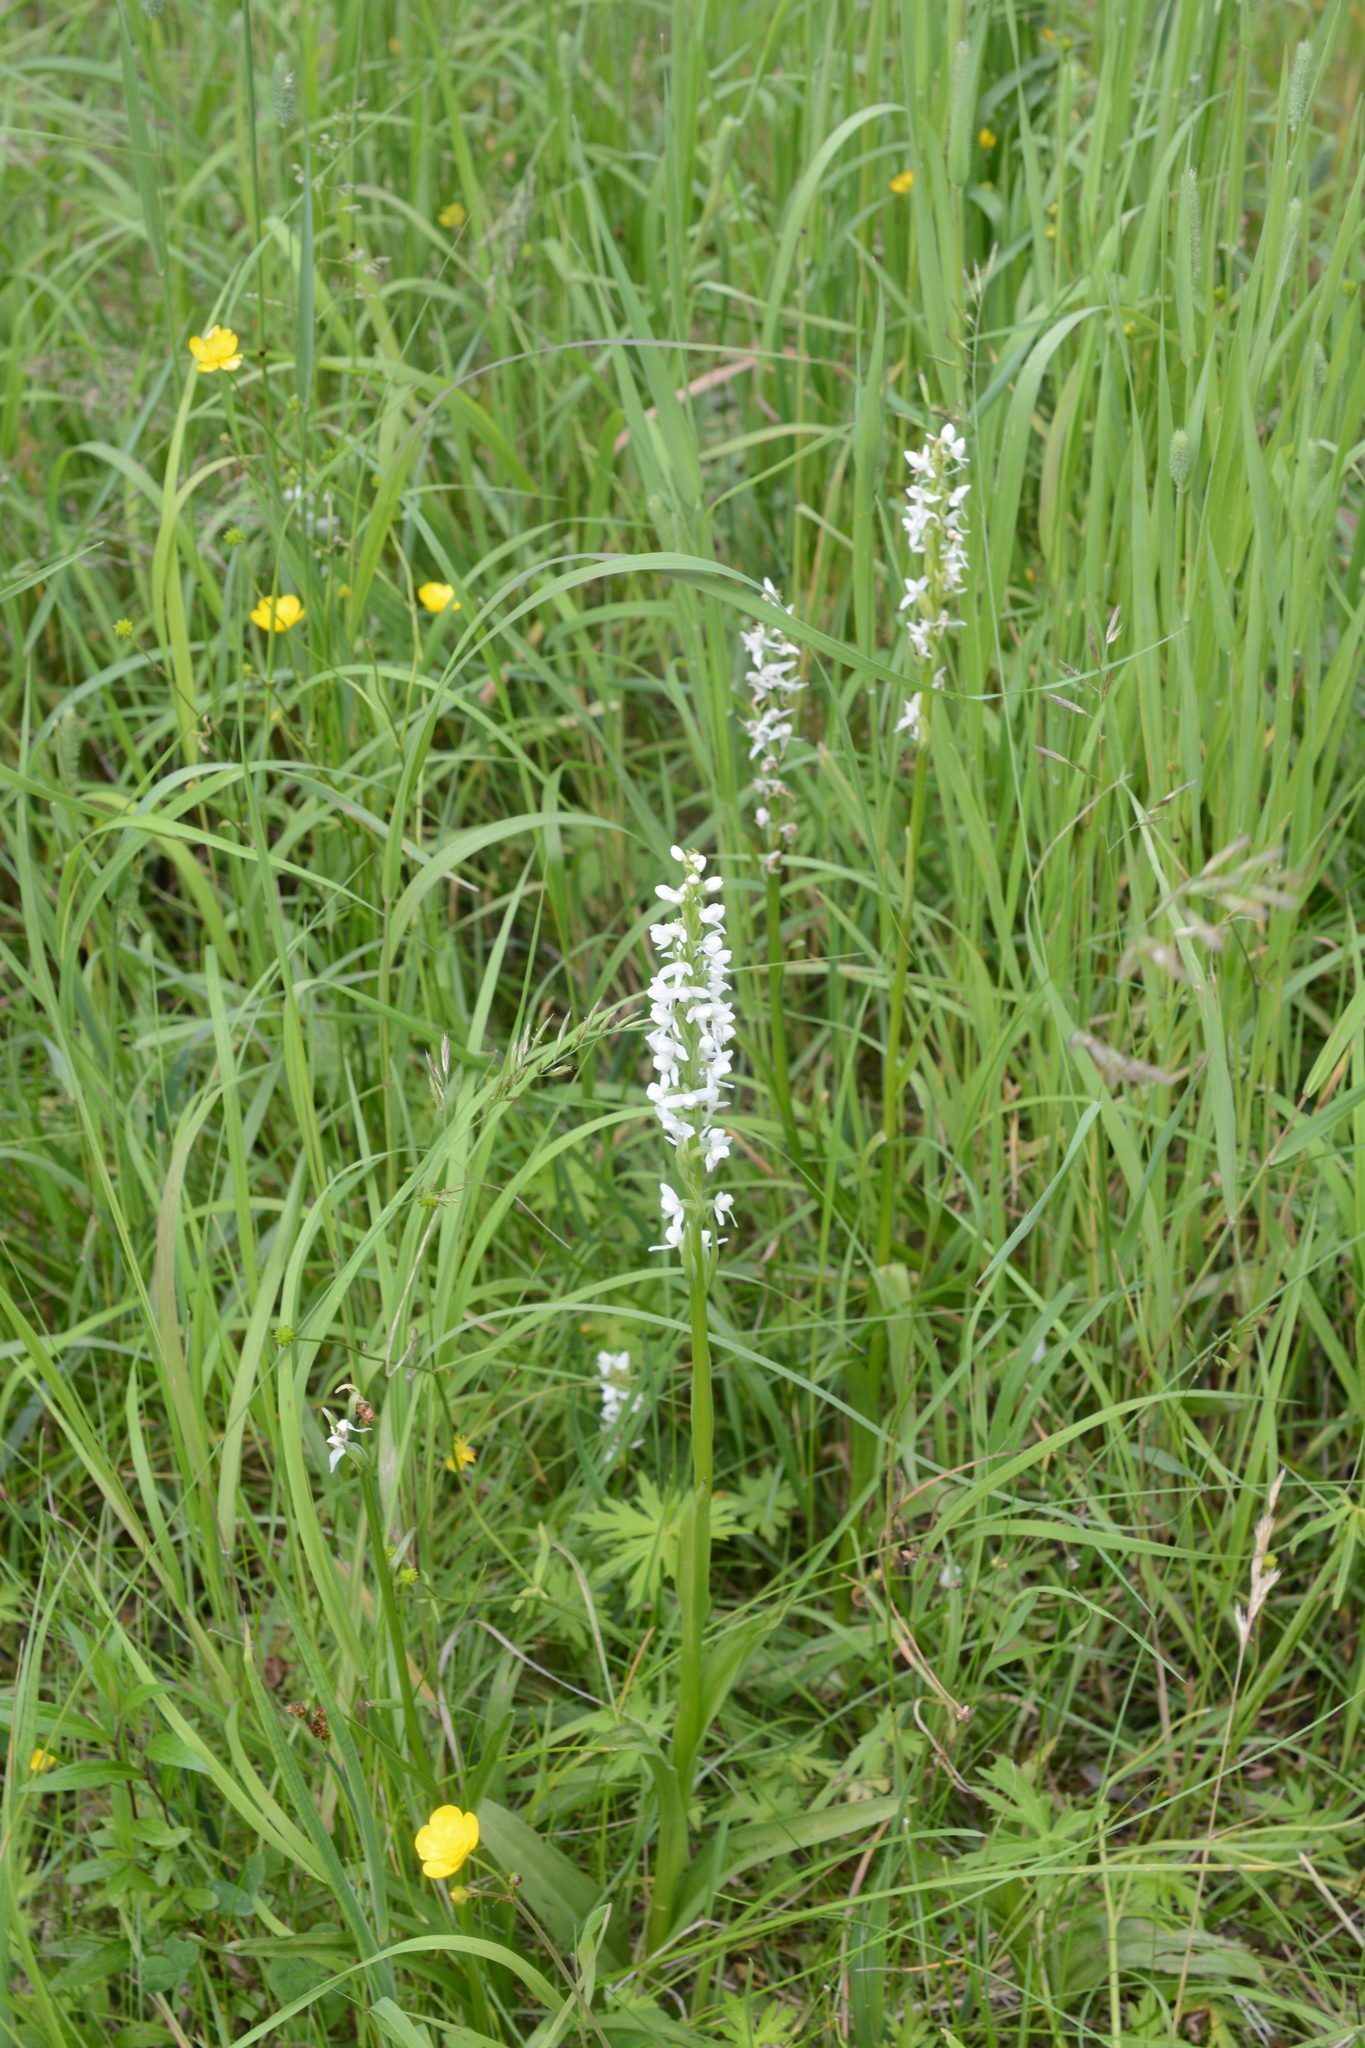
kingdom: Plantae
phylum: Tracheophyta
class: Liliopsida
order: Asparagales
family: Orchidaceae
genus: Platanthera
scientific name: Platanthera dilatata
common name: Bog candles
